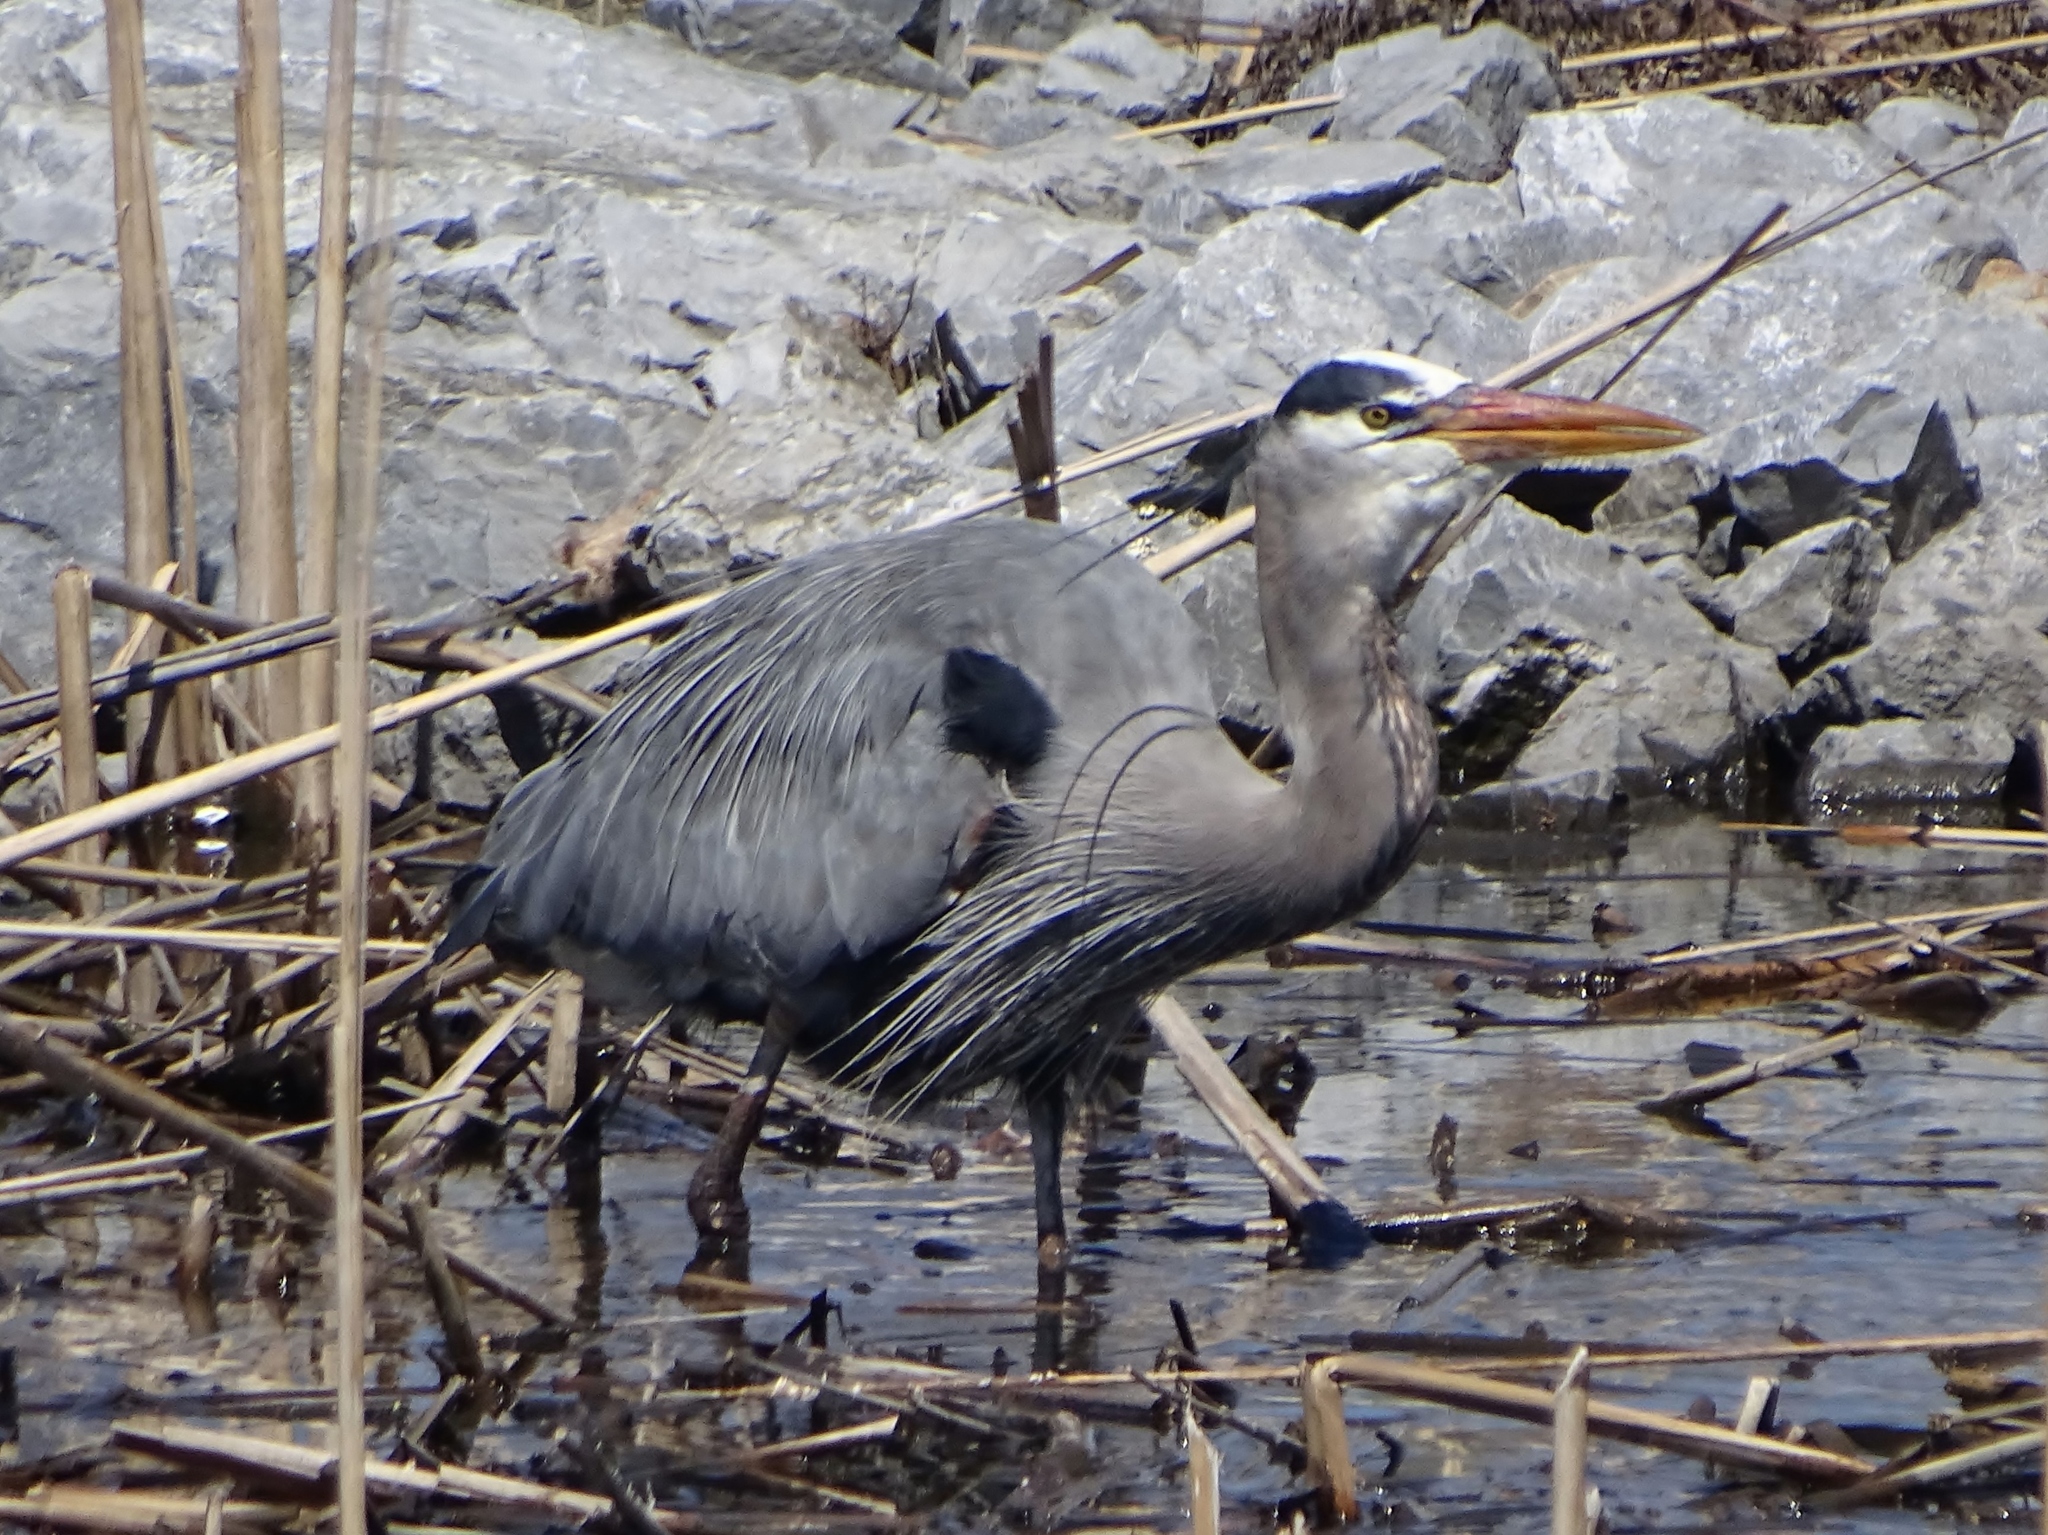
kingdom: Animalia
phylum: Chordata
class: Aves
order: Pelecaniformes
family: Ardeidae
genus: Ardea
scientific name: Ardea herodias
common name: Great blue heron
